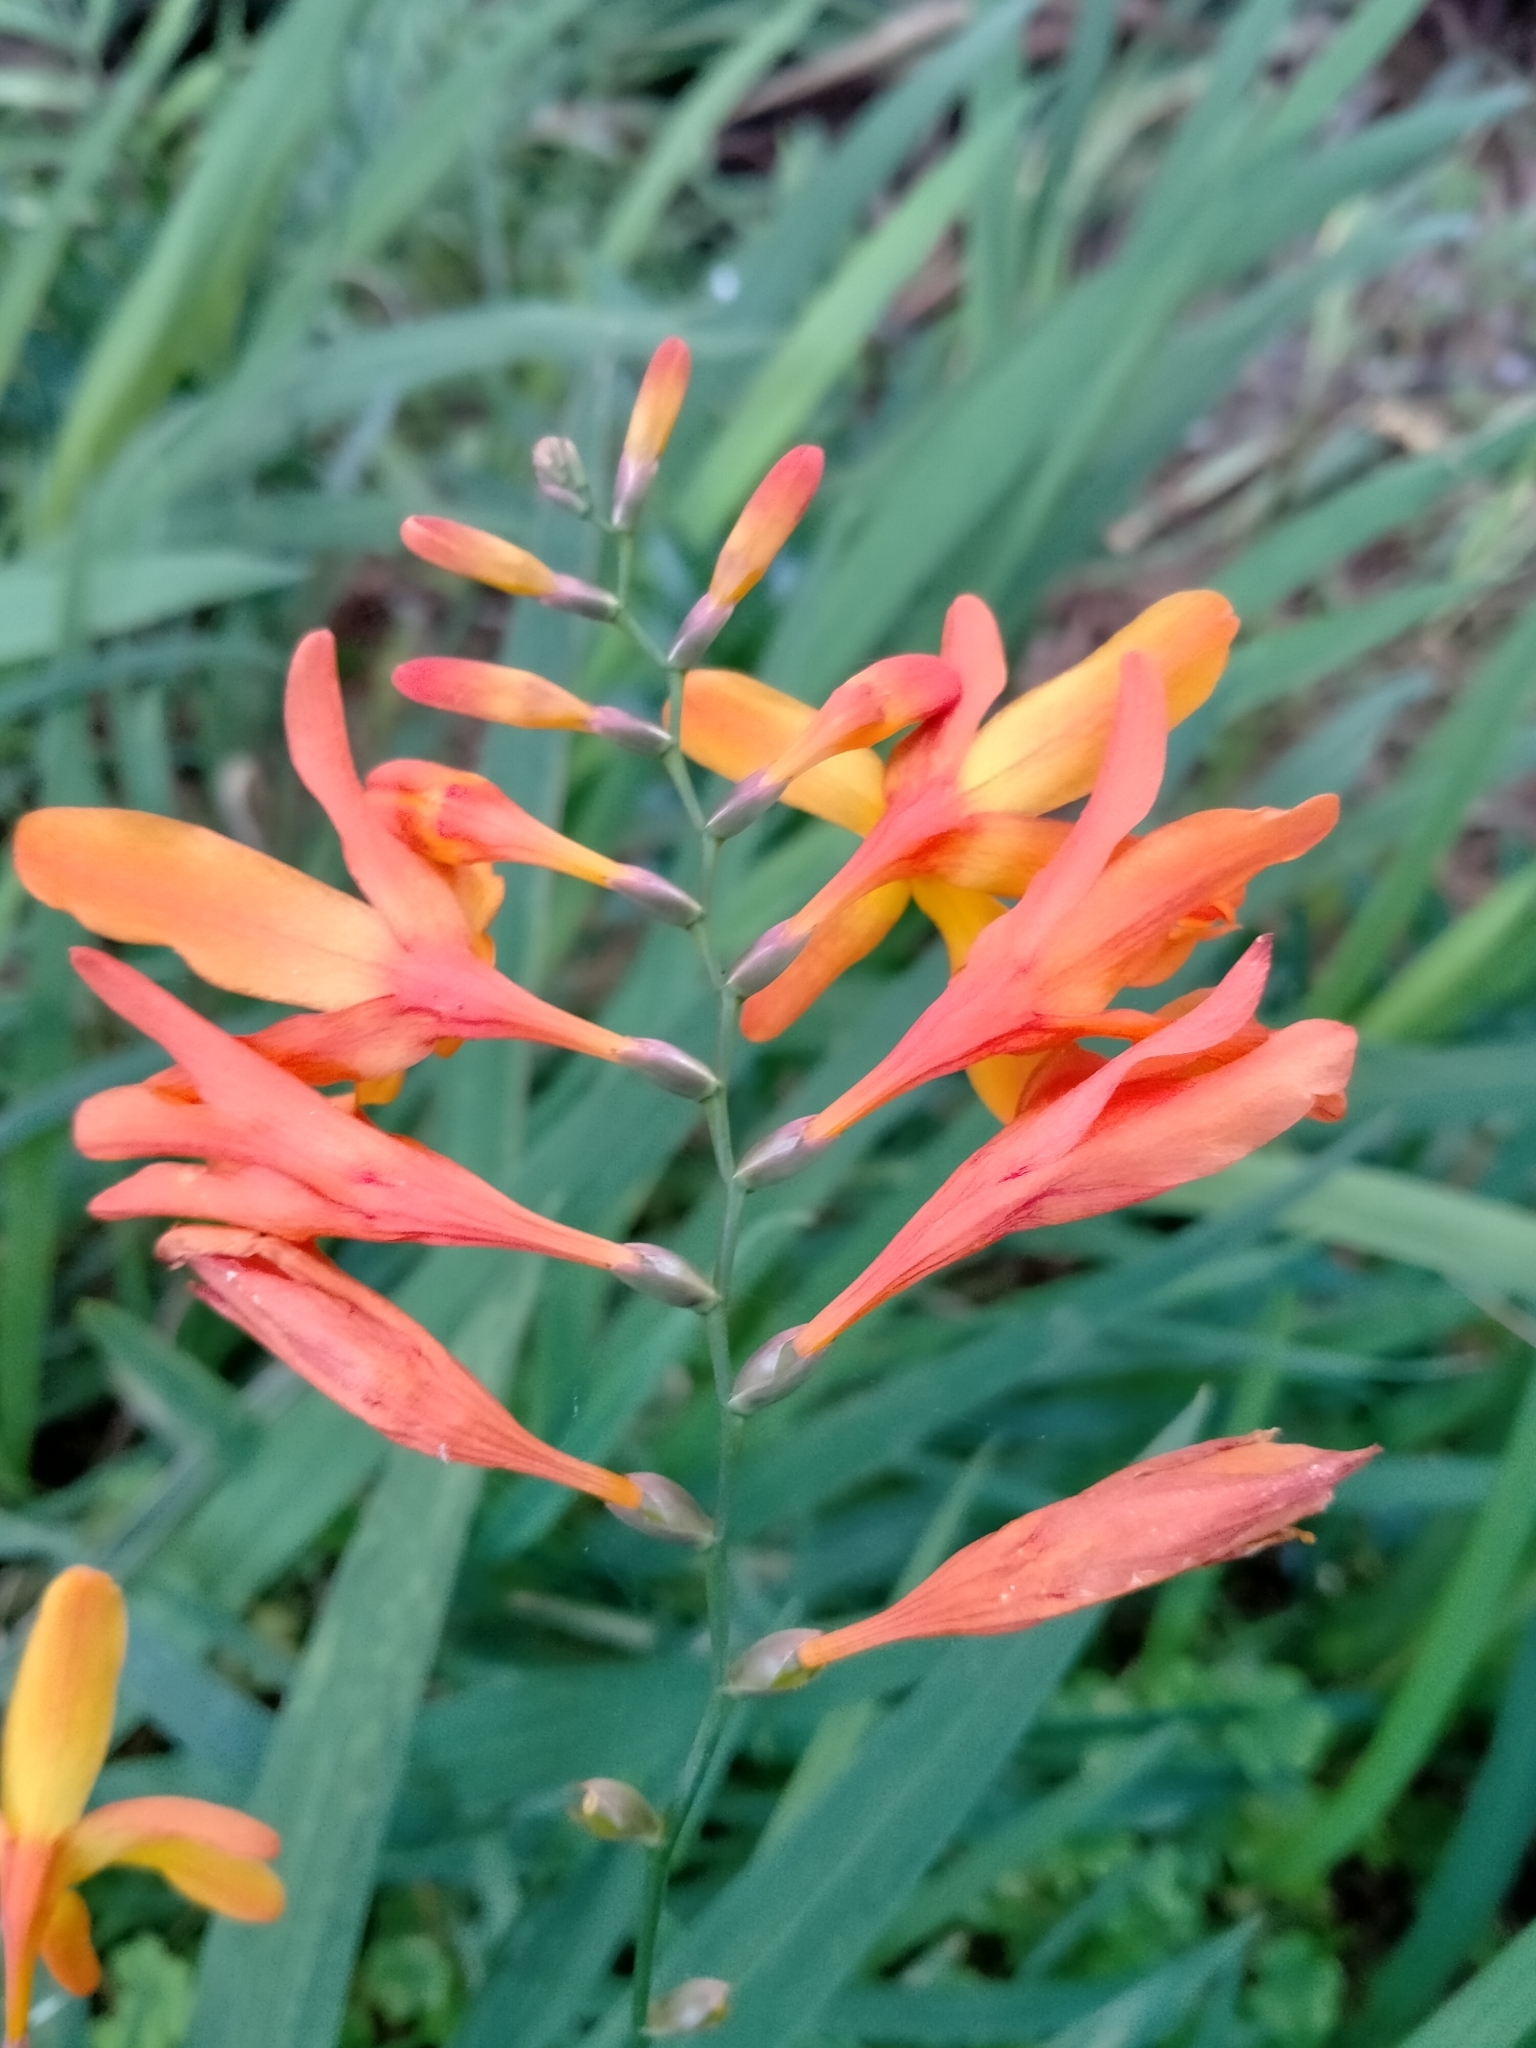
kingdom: Plantae
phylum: Tracheophyta
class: Liliopsida
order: Asparagales
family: Iridaceae
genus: Crocosmia
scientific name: Crocosmia crocosmiiflora
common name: Montbretia
